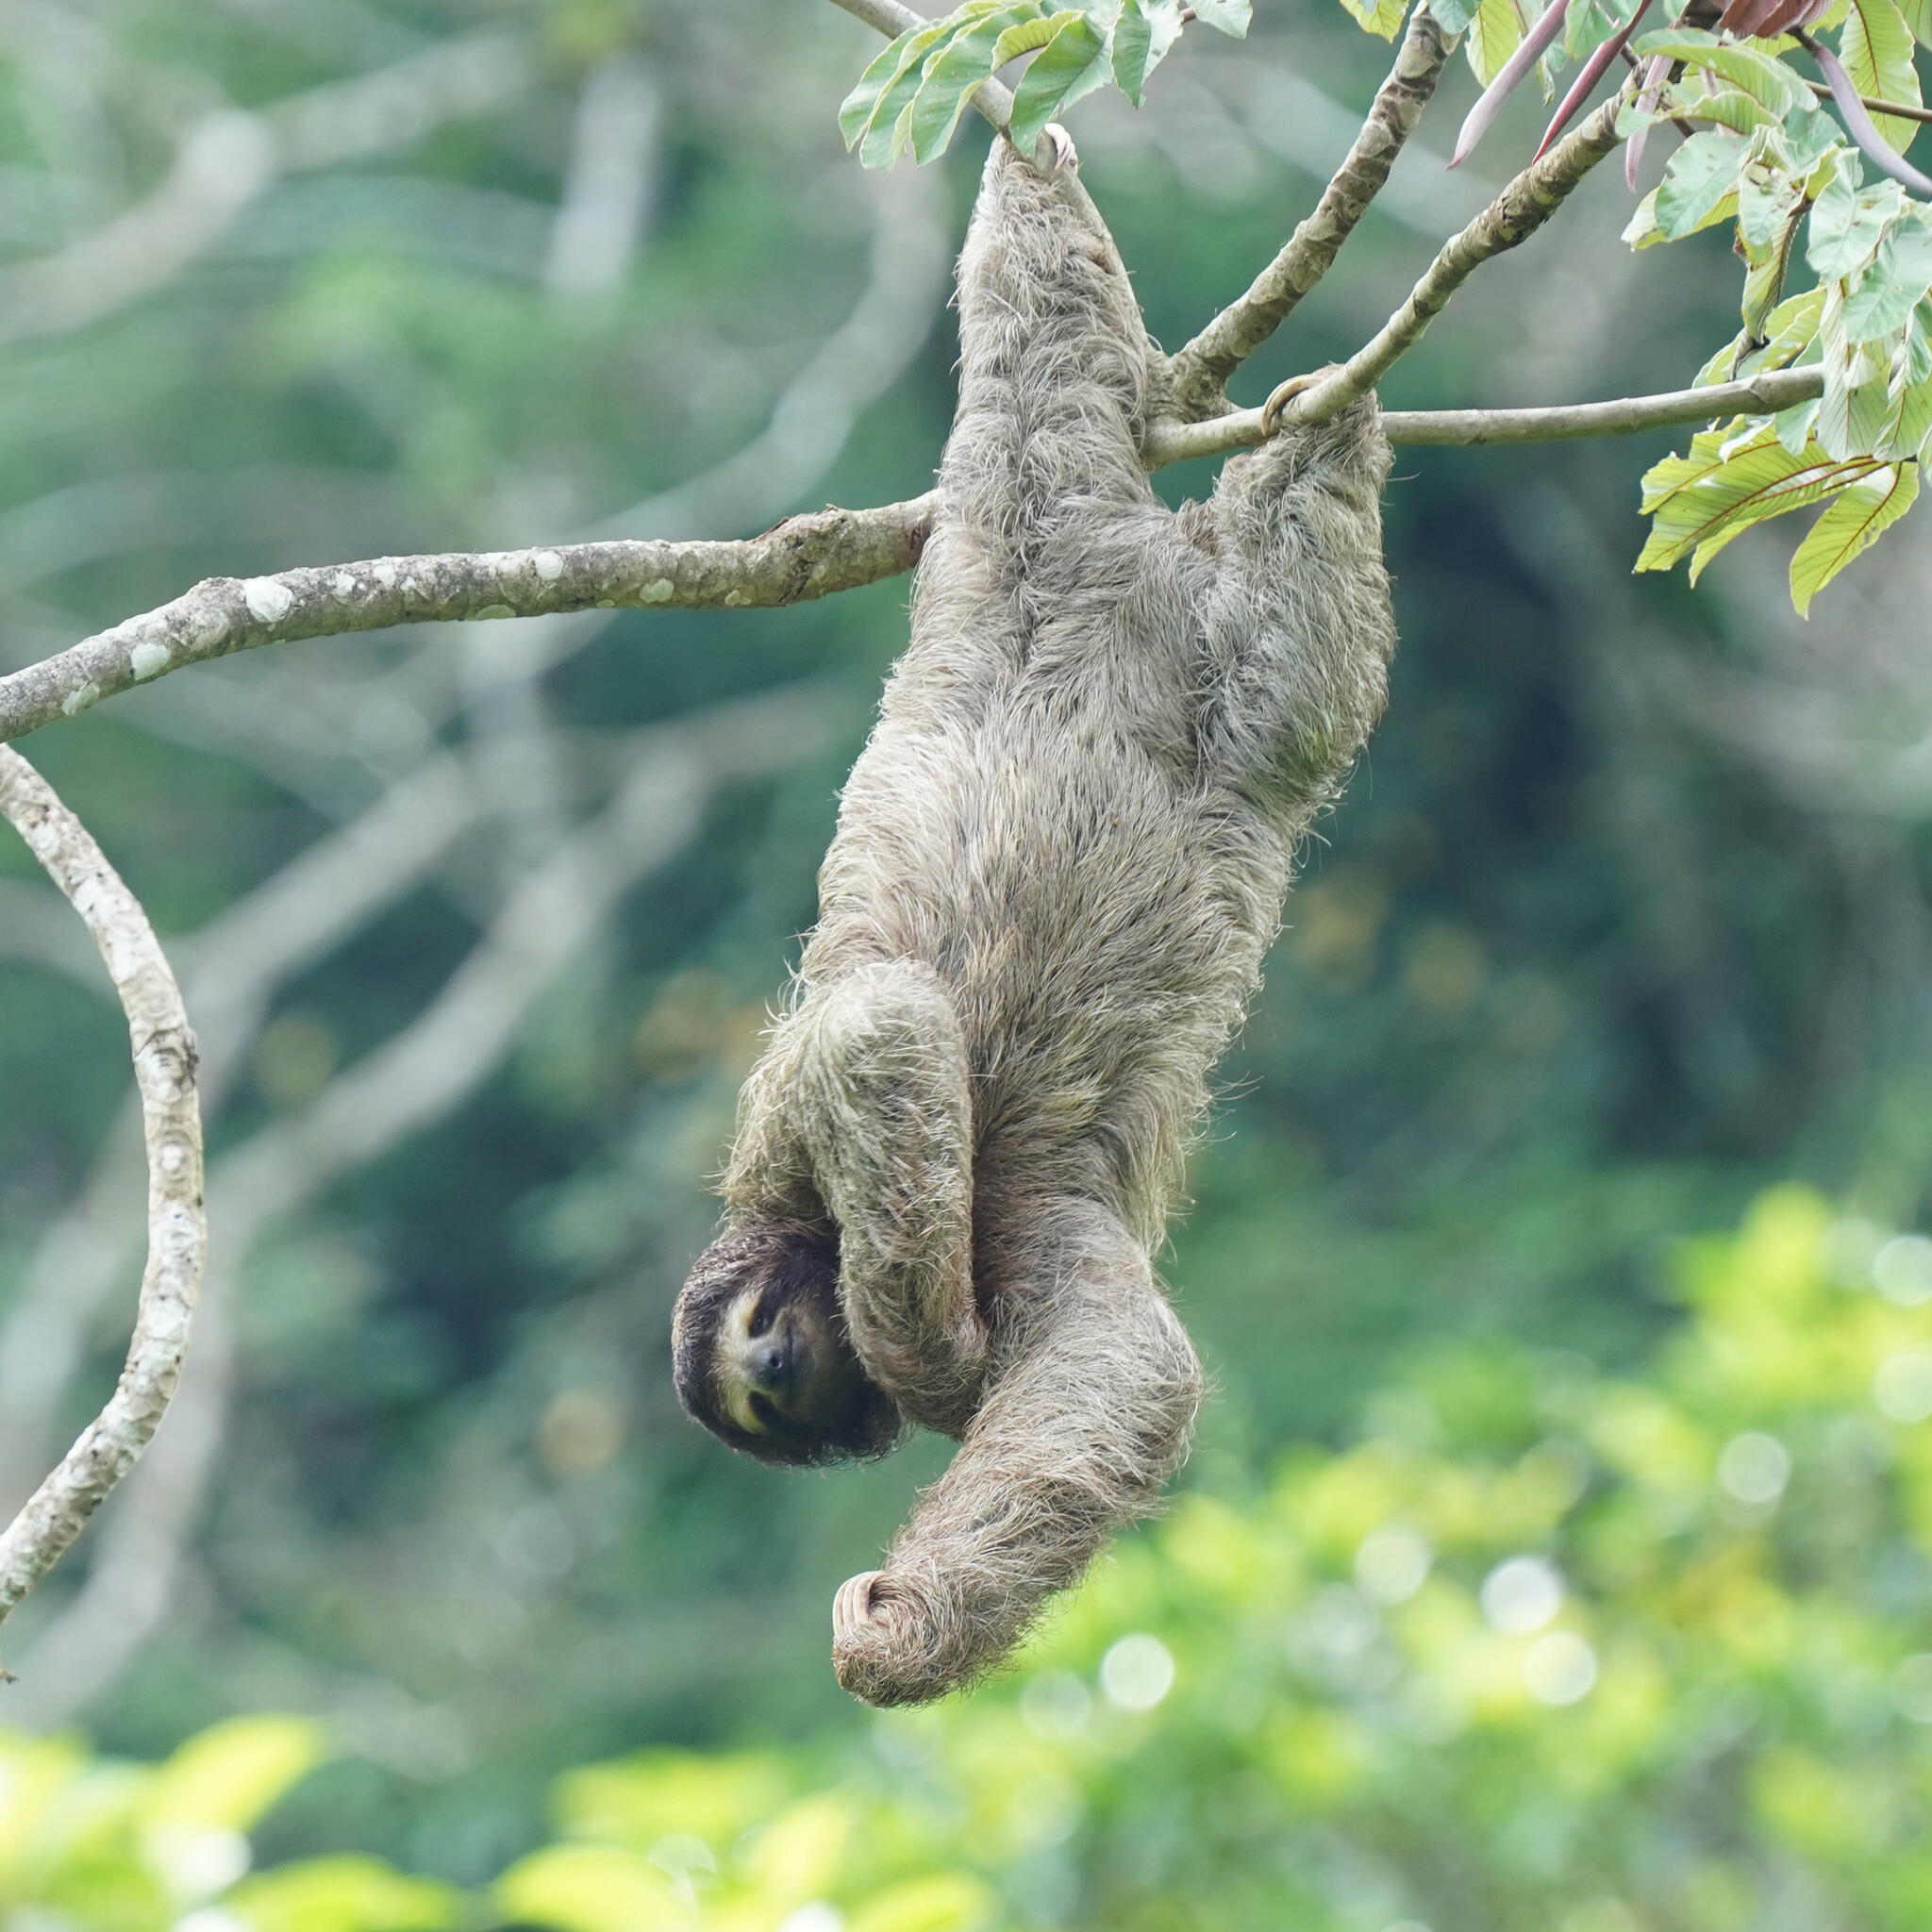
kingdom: Animalia
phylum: Chordata
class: Mammalia
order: Pilosa
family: Bradypodidae
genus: Bradypus
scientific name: Bradypus variegatus
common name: Brown-throated three-toed sloth
